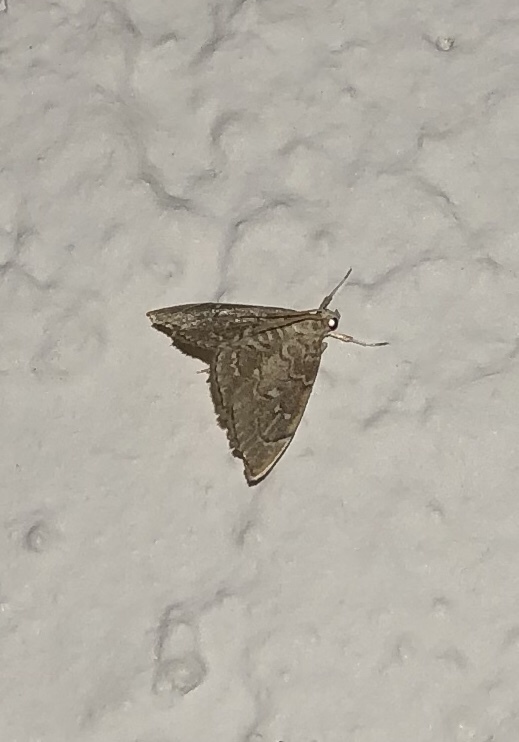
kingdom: Animalia
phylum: Arthropoda
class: Insecta
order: Lepidoptera
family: Crambidae
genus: Nephrogramma
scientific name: Nephrogramma separata
